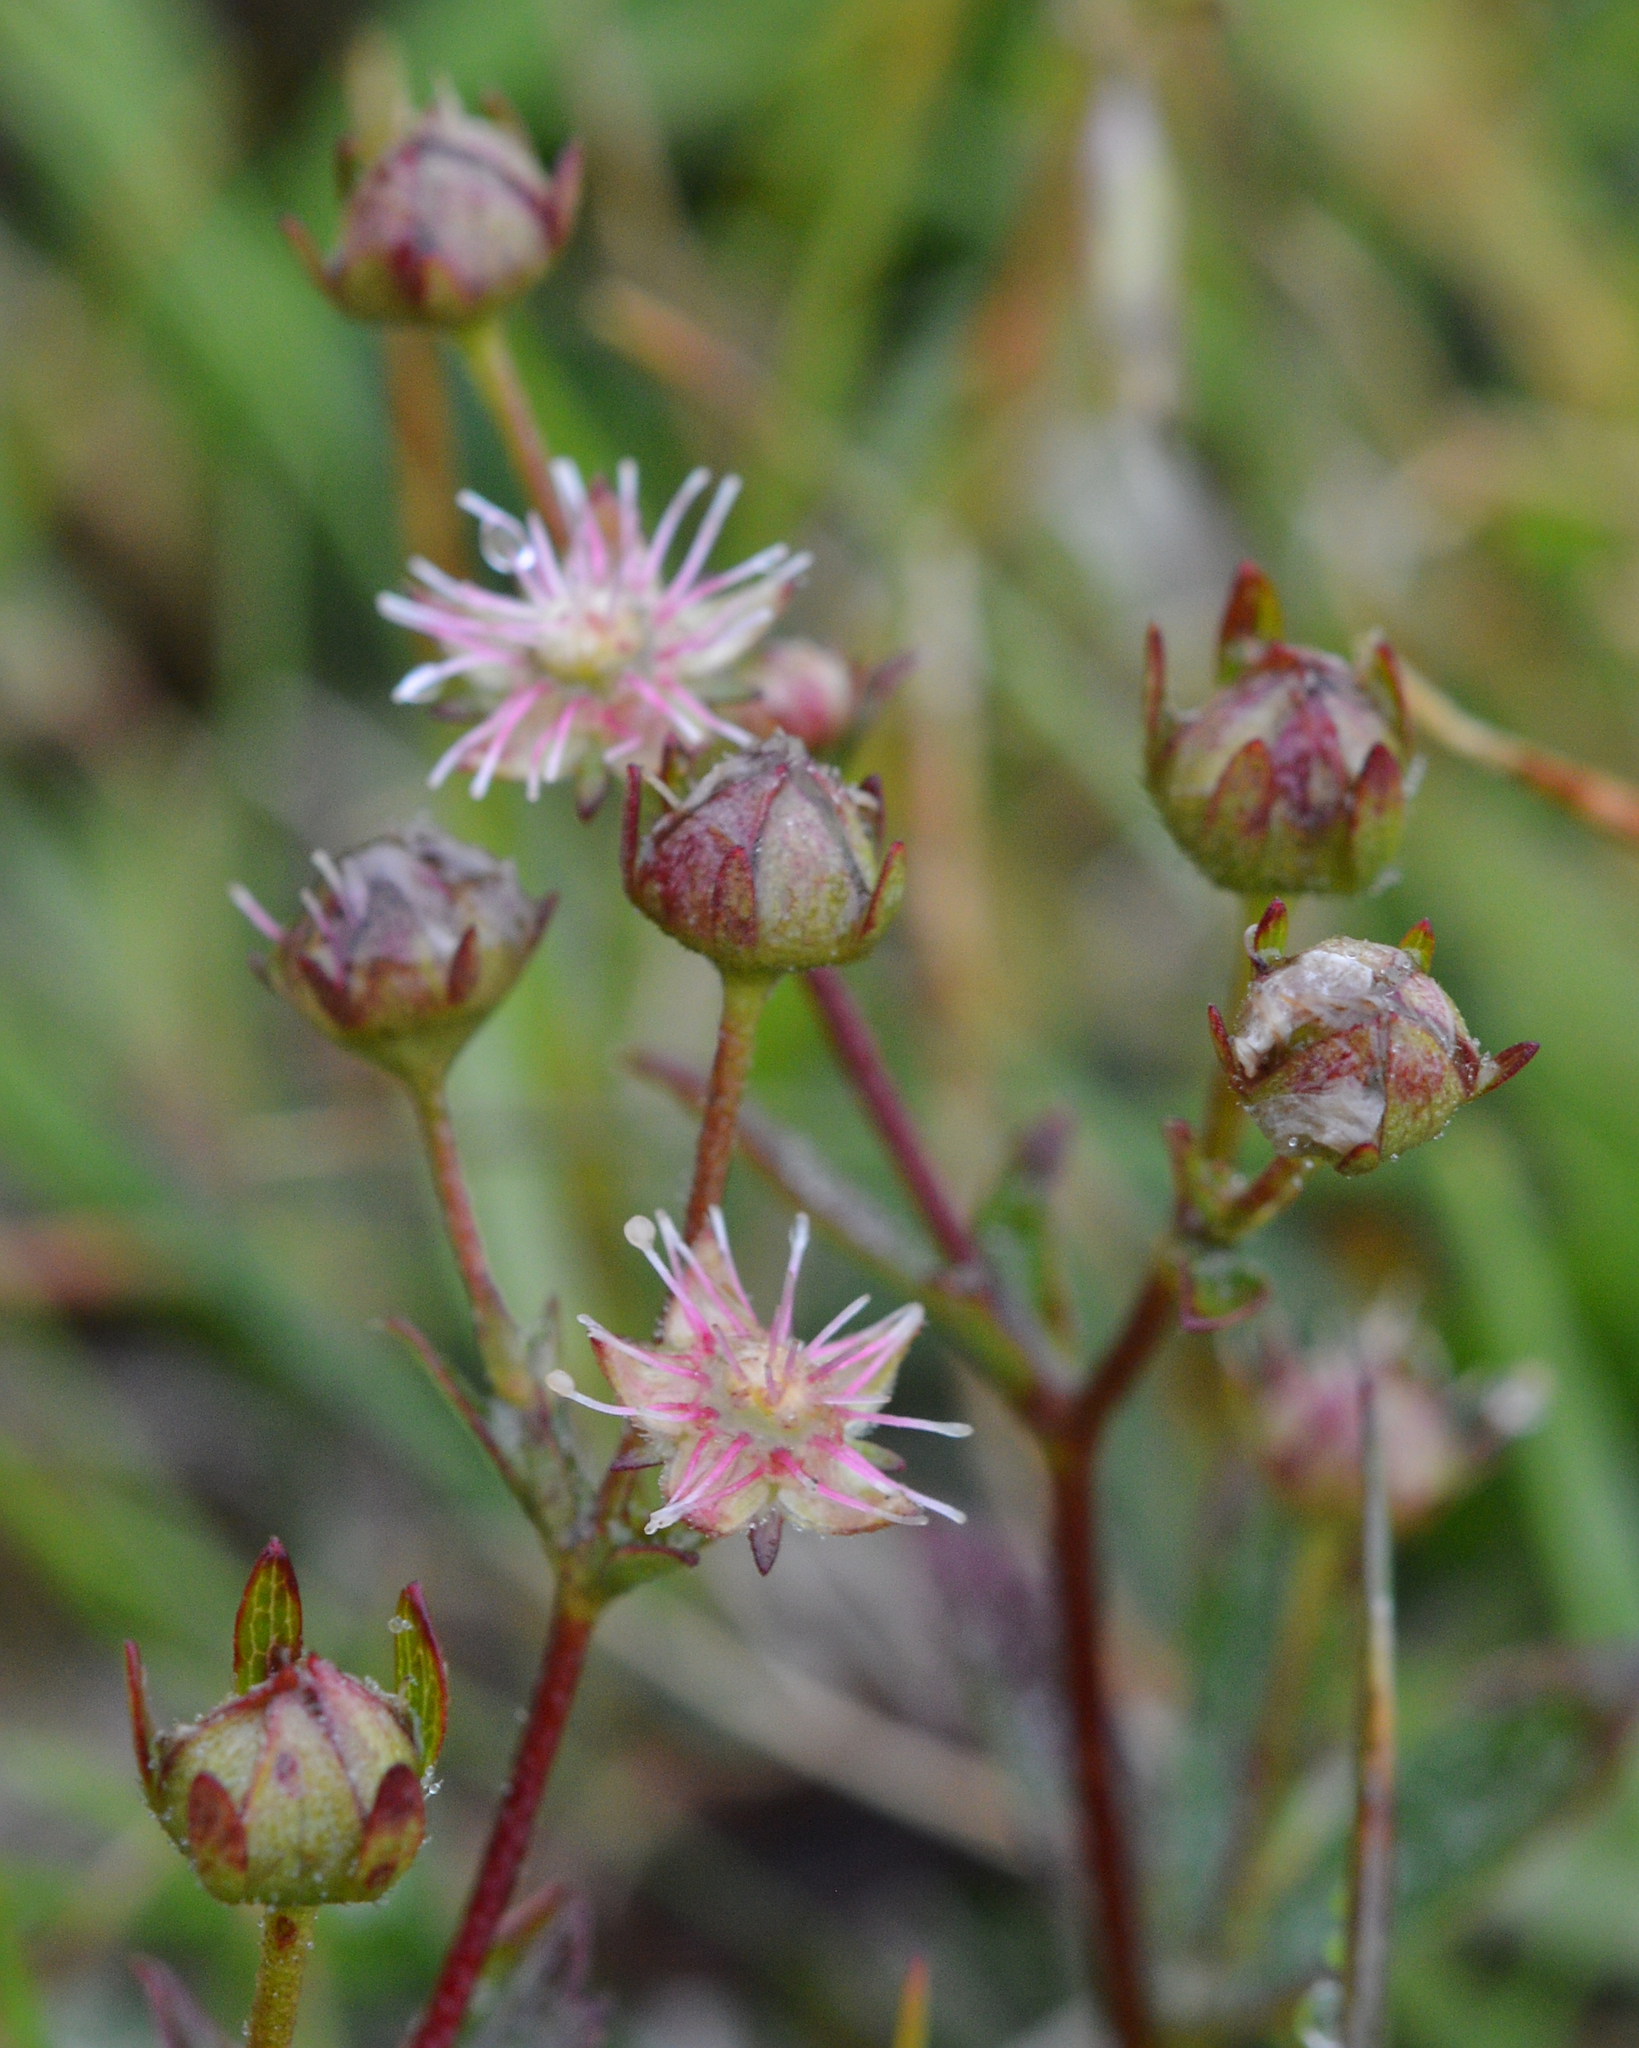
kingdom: Plantae
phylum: Tracheophyta
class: Magnoliopsida
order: Rosales
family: Rosaceae
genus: Sibbaldia
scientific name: Sibbaldia tridentata
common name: Three-toothed cinquefoil
